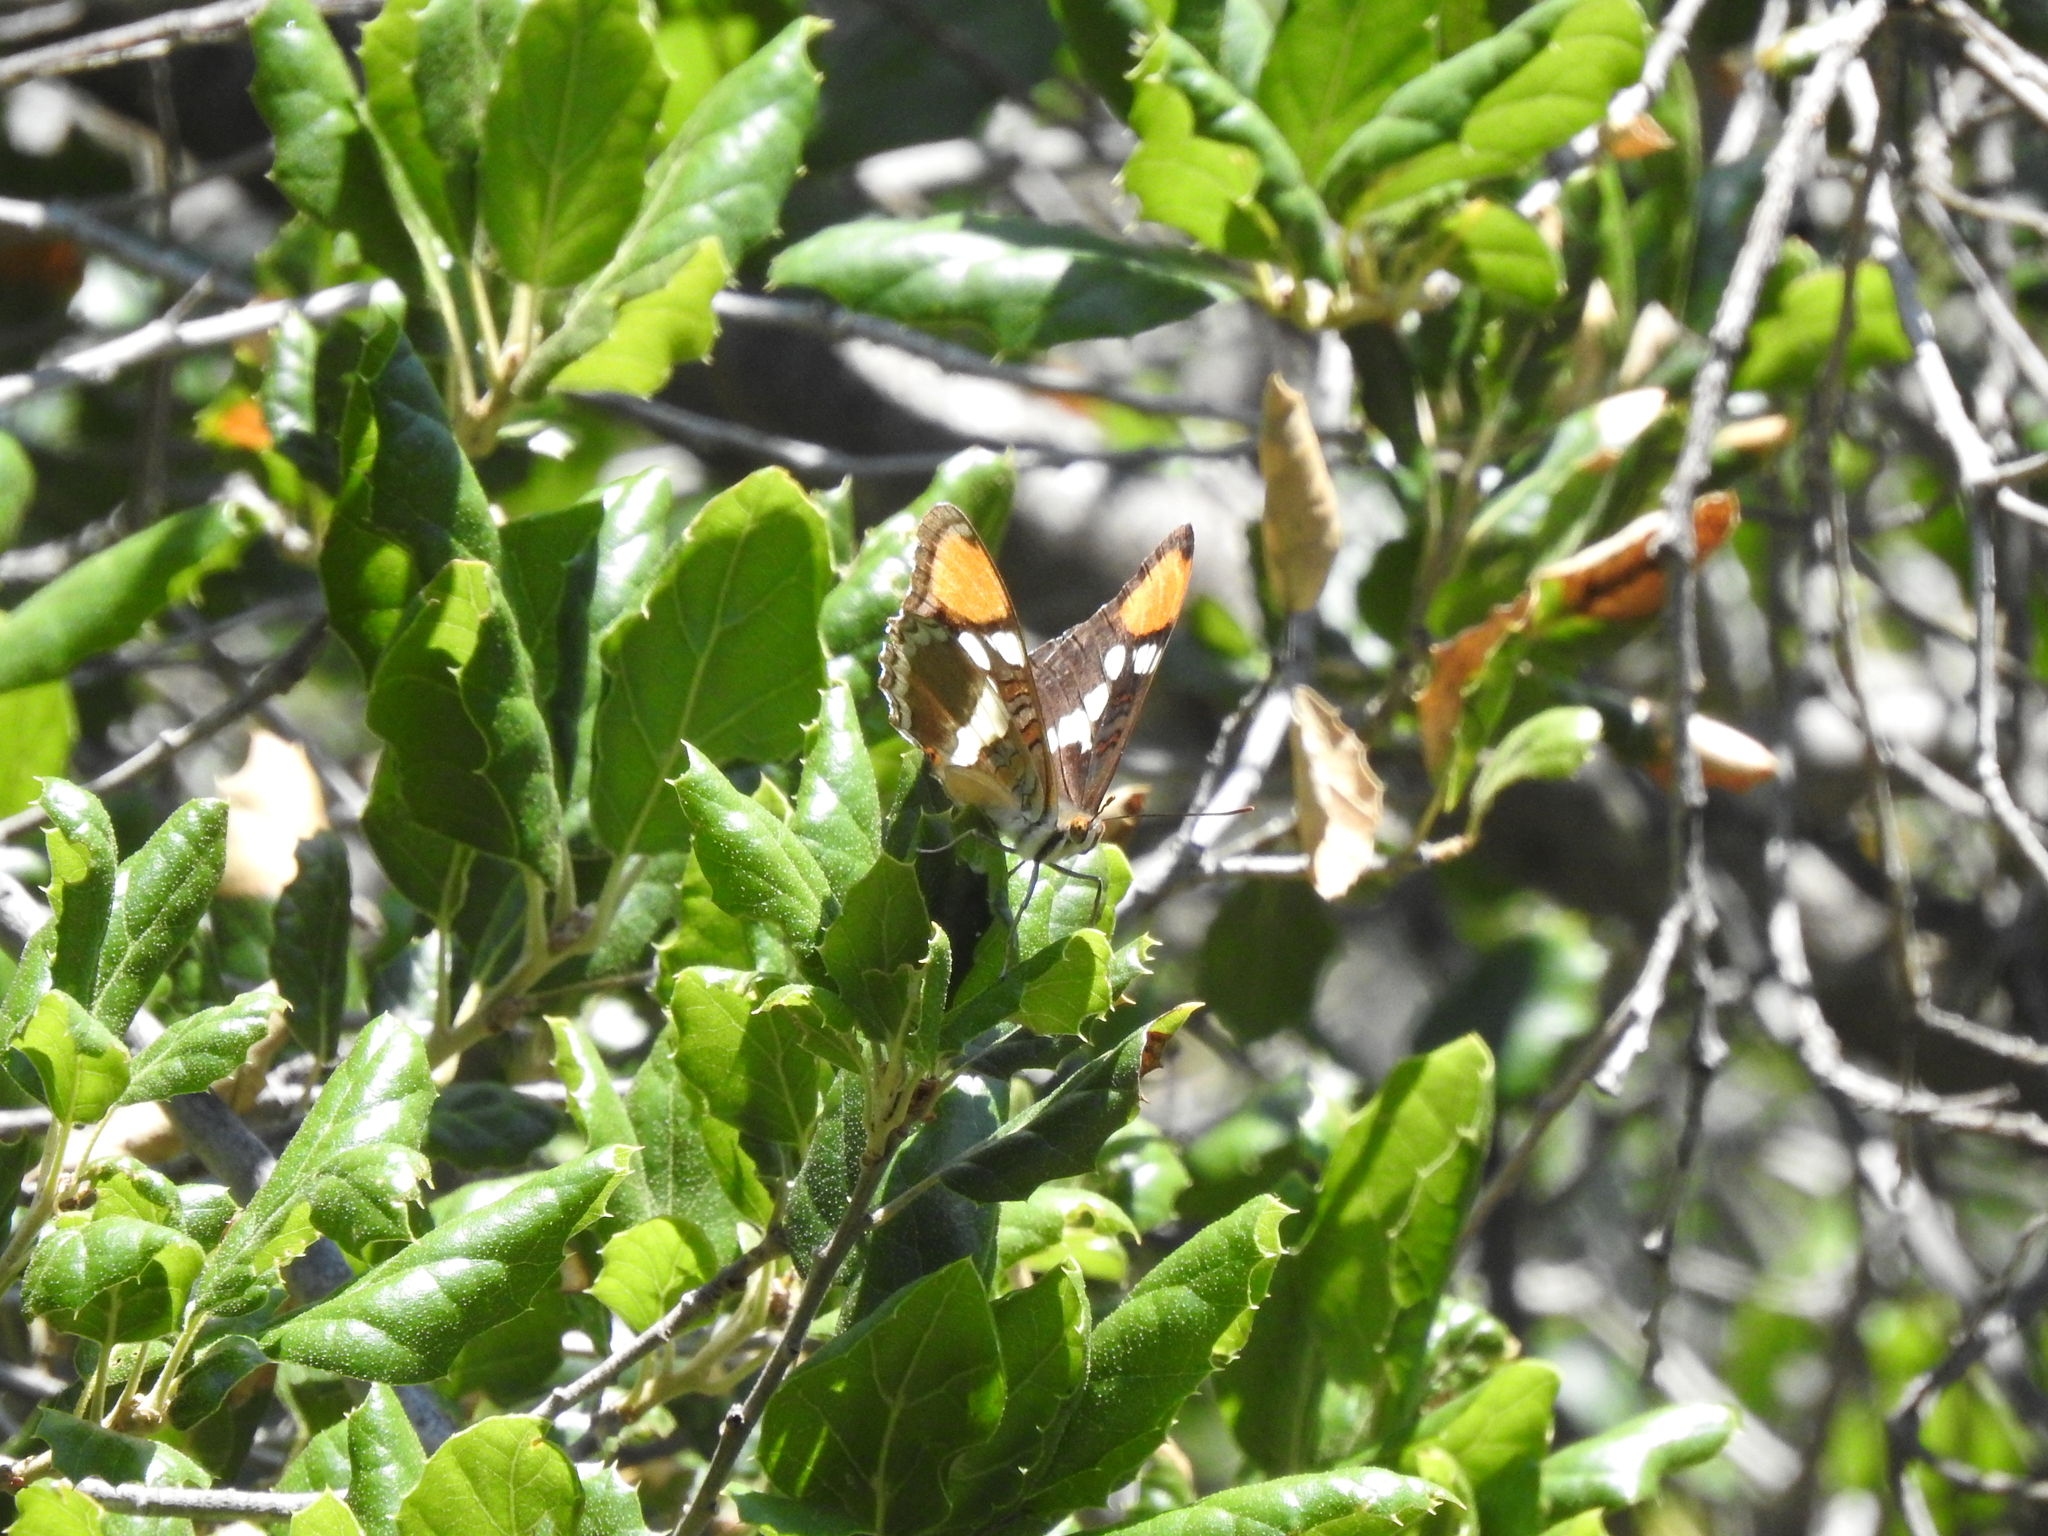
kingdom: Animalia
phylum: Arthropoda
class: Insecta
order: Lepidoptera
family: Nymphalidae
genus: Limenitis
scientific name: Limenitis bredowii
